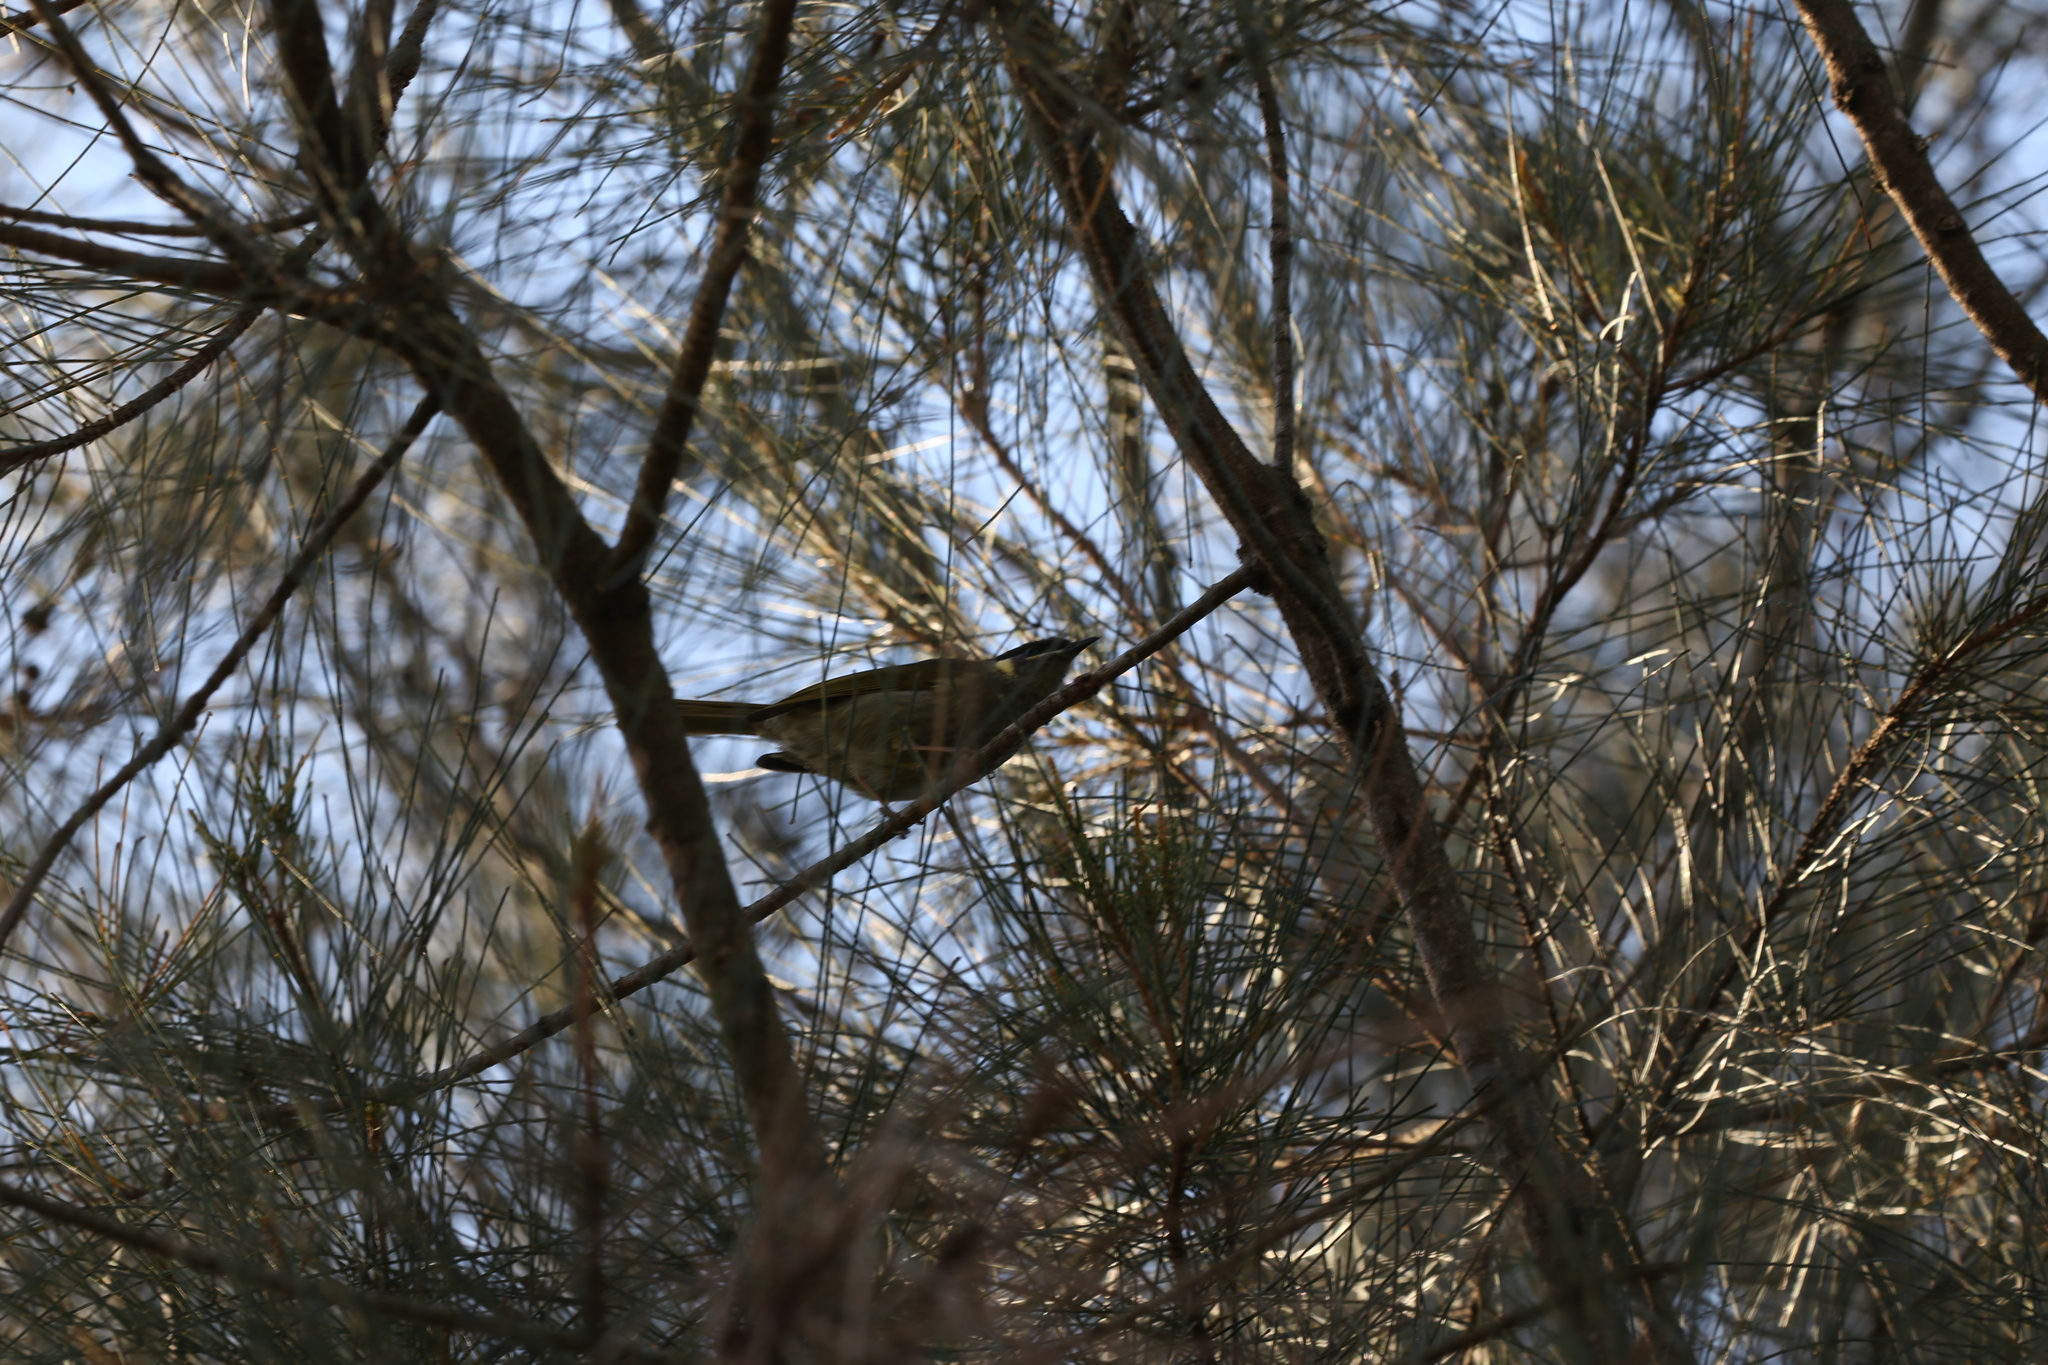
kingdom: Animalia
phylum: Chordata
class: Aves
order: Passeriformes
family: Meliphagidae
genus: Meliphaga
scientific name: Meliphaga lewinii
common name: Lewin's honeyeater
